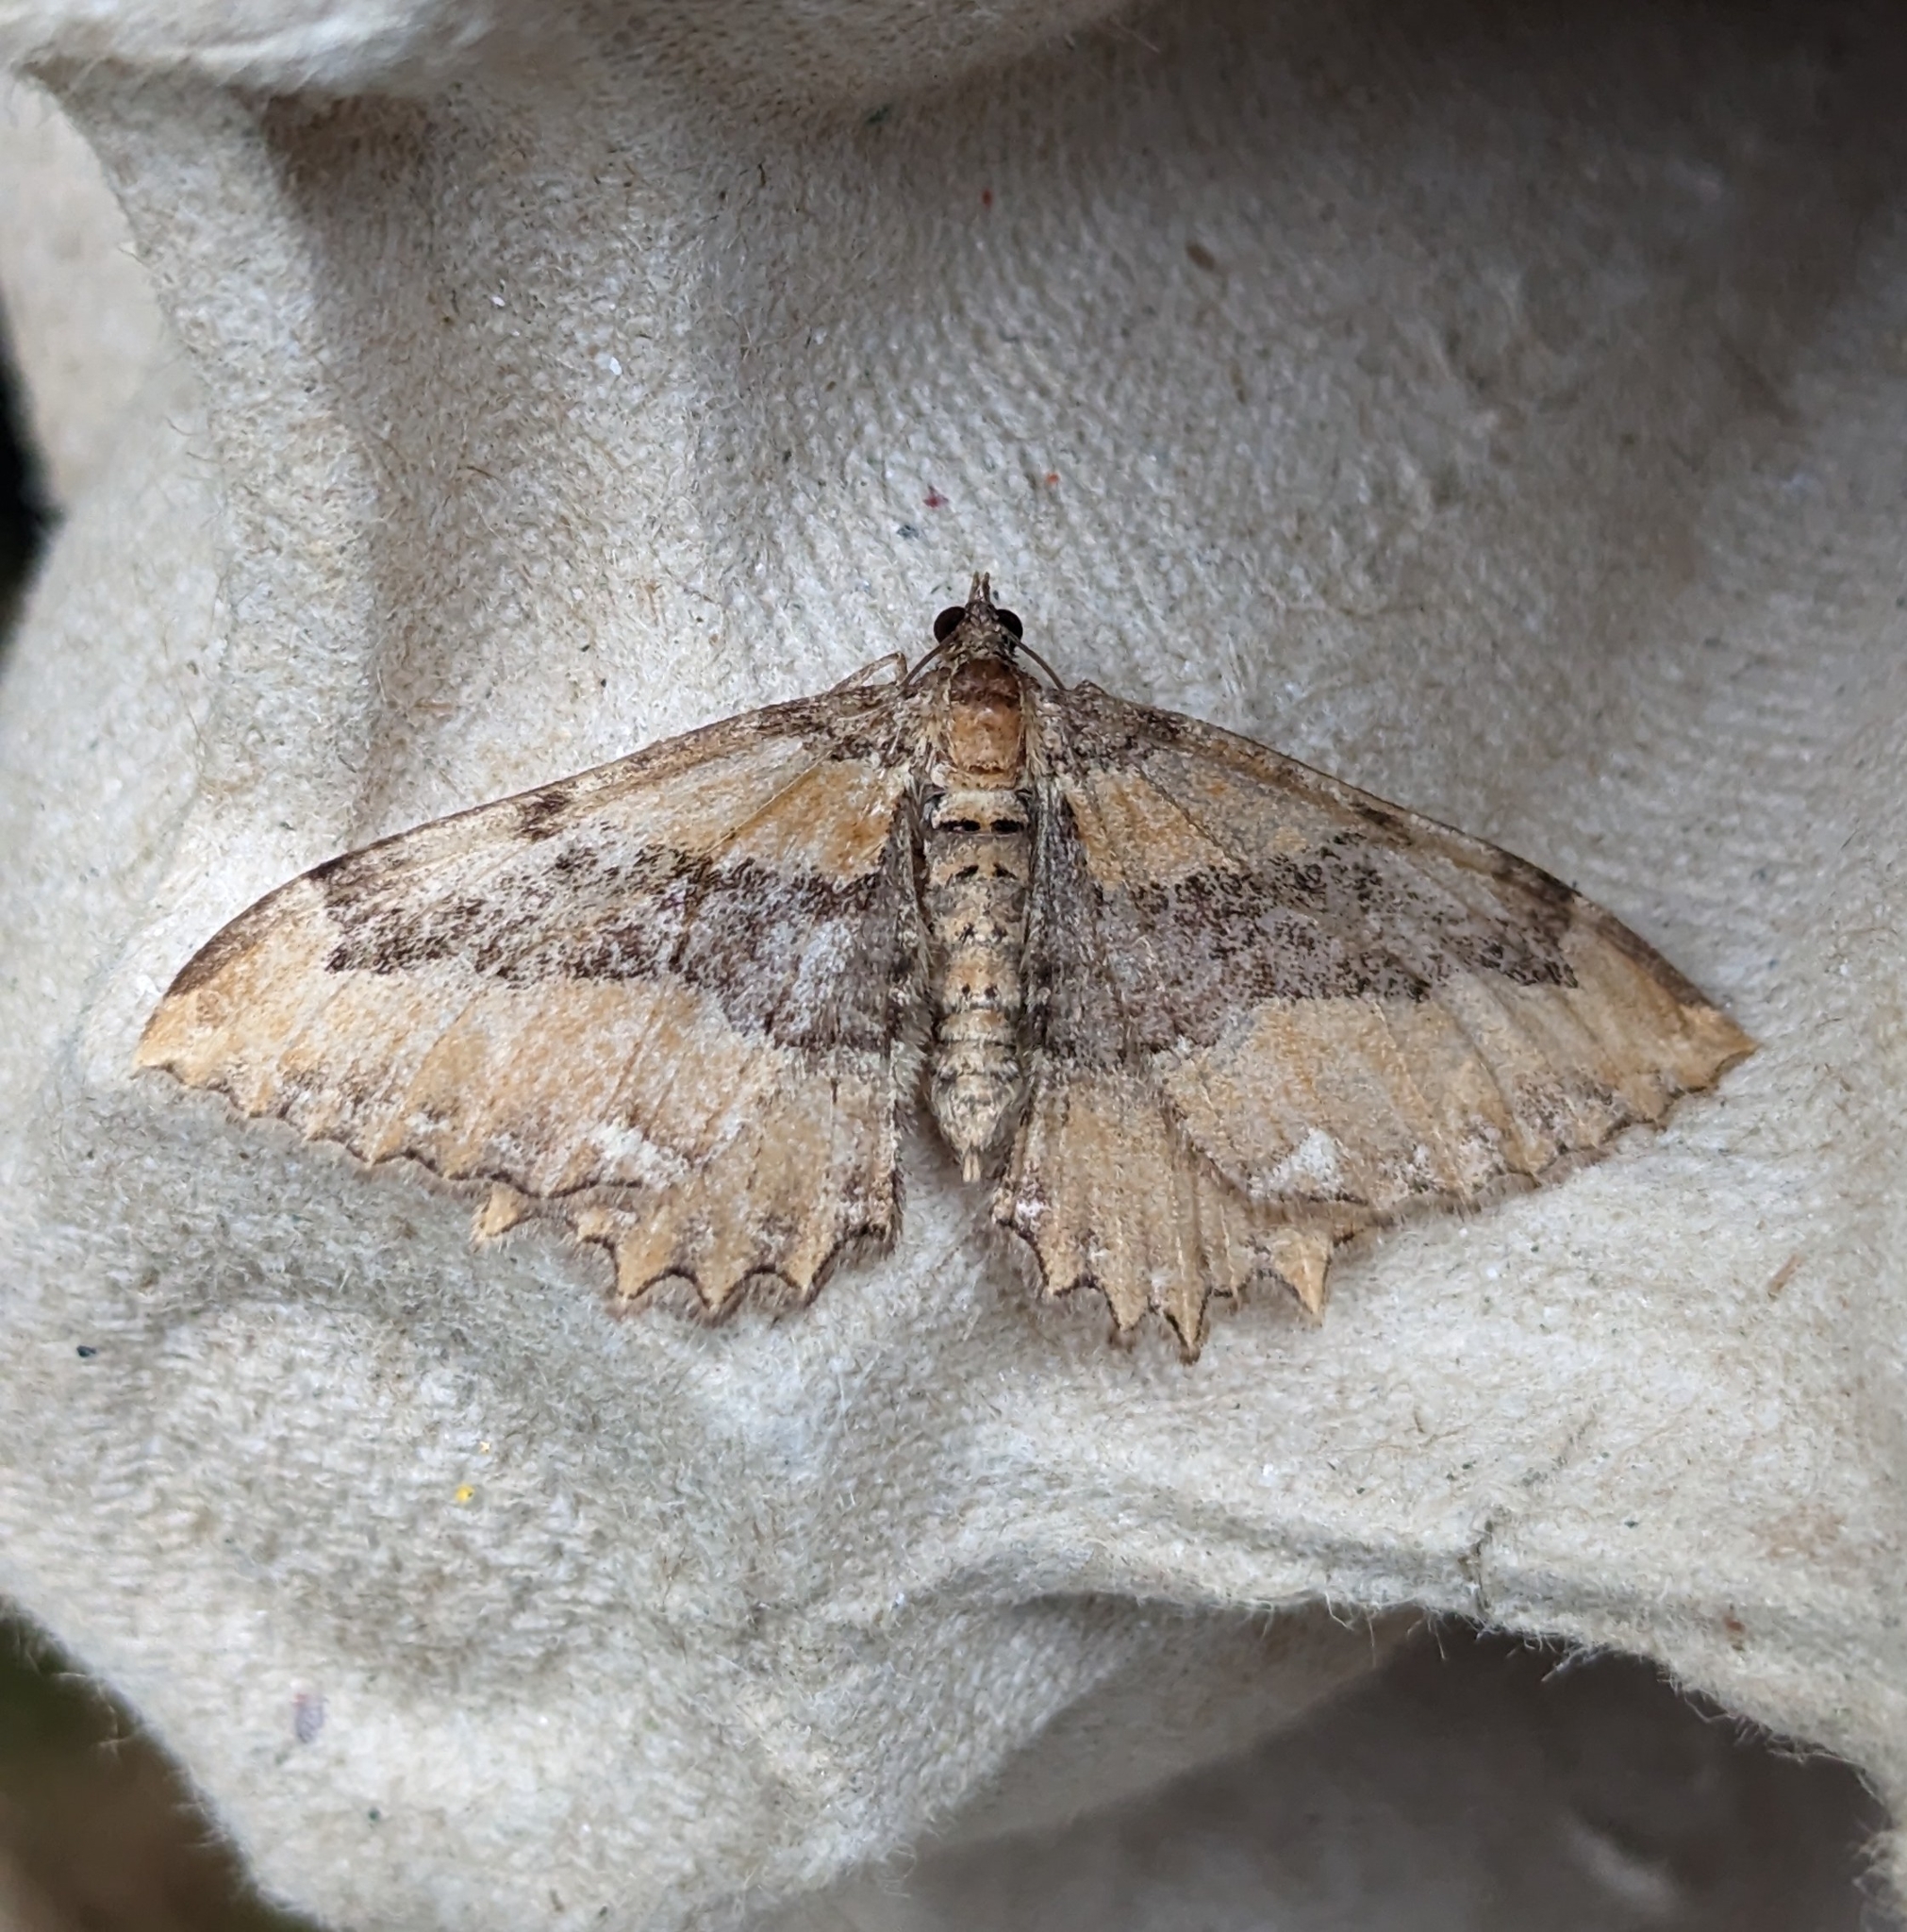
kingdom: Animalia
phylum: Arthropoda
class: Insecta
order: Lepidoptera
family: Geometridae
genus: Rheumaptera
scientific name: Rheumaptera
